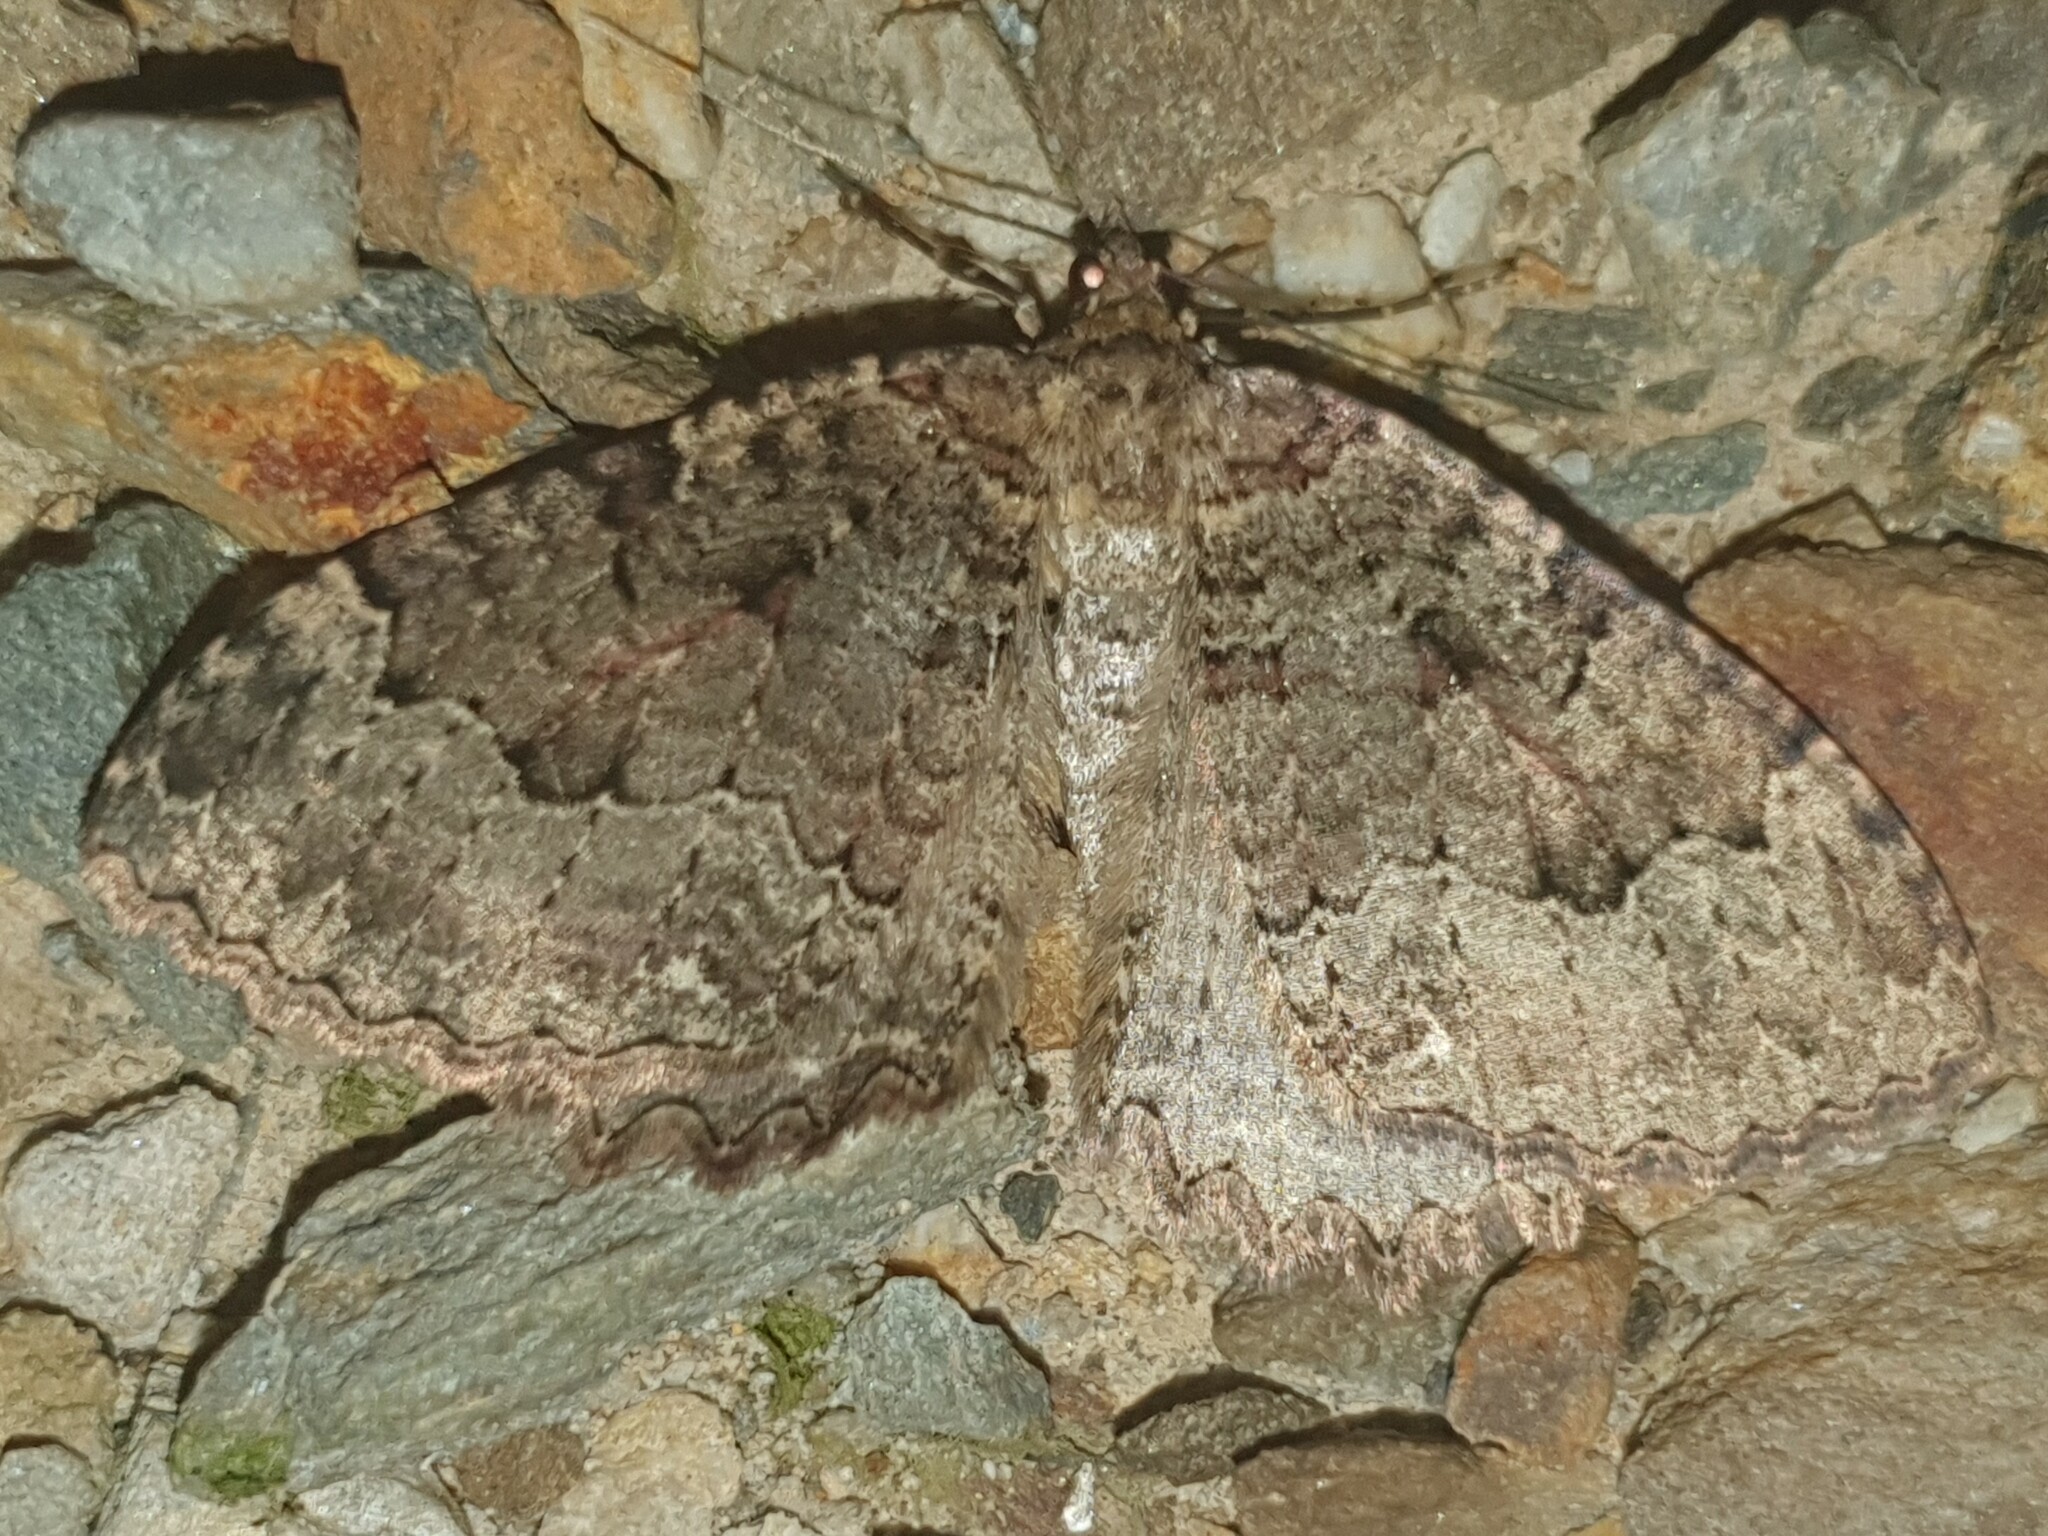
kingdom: Animalia
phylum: Arthropoda
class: Insecta
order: Lepidoptera
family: Geometridae
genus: Triphosa
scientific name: Triphosa dubitata
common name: Tissue
